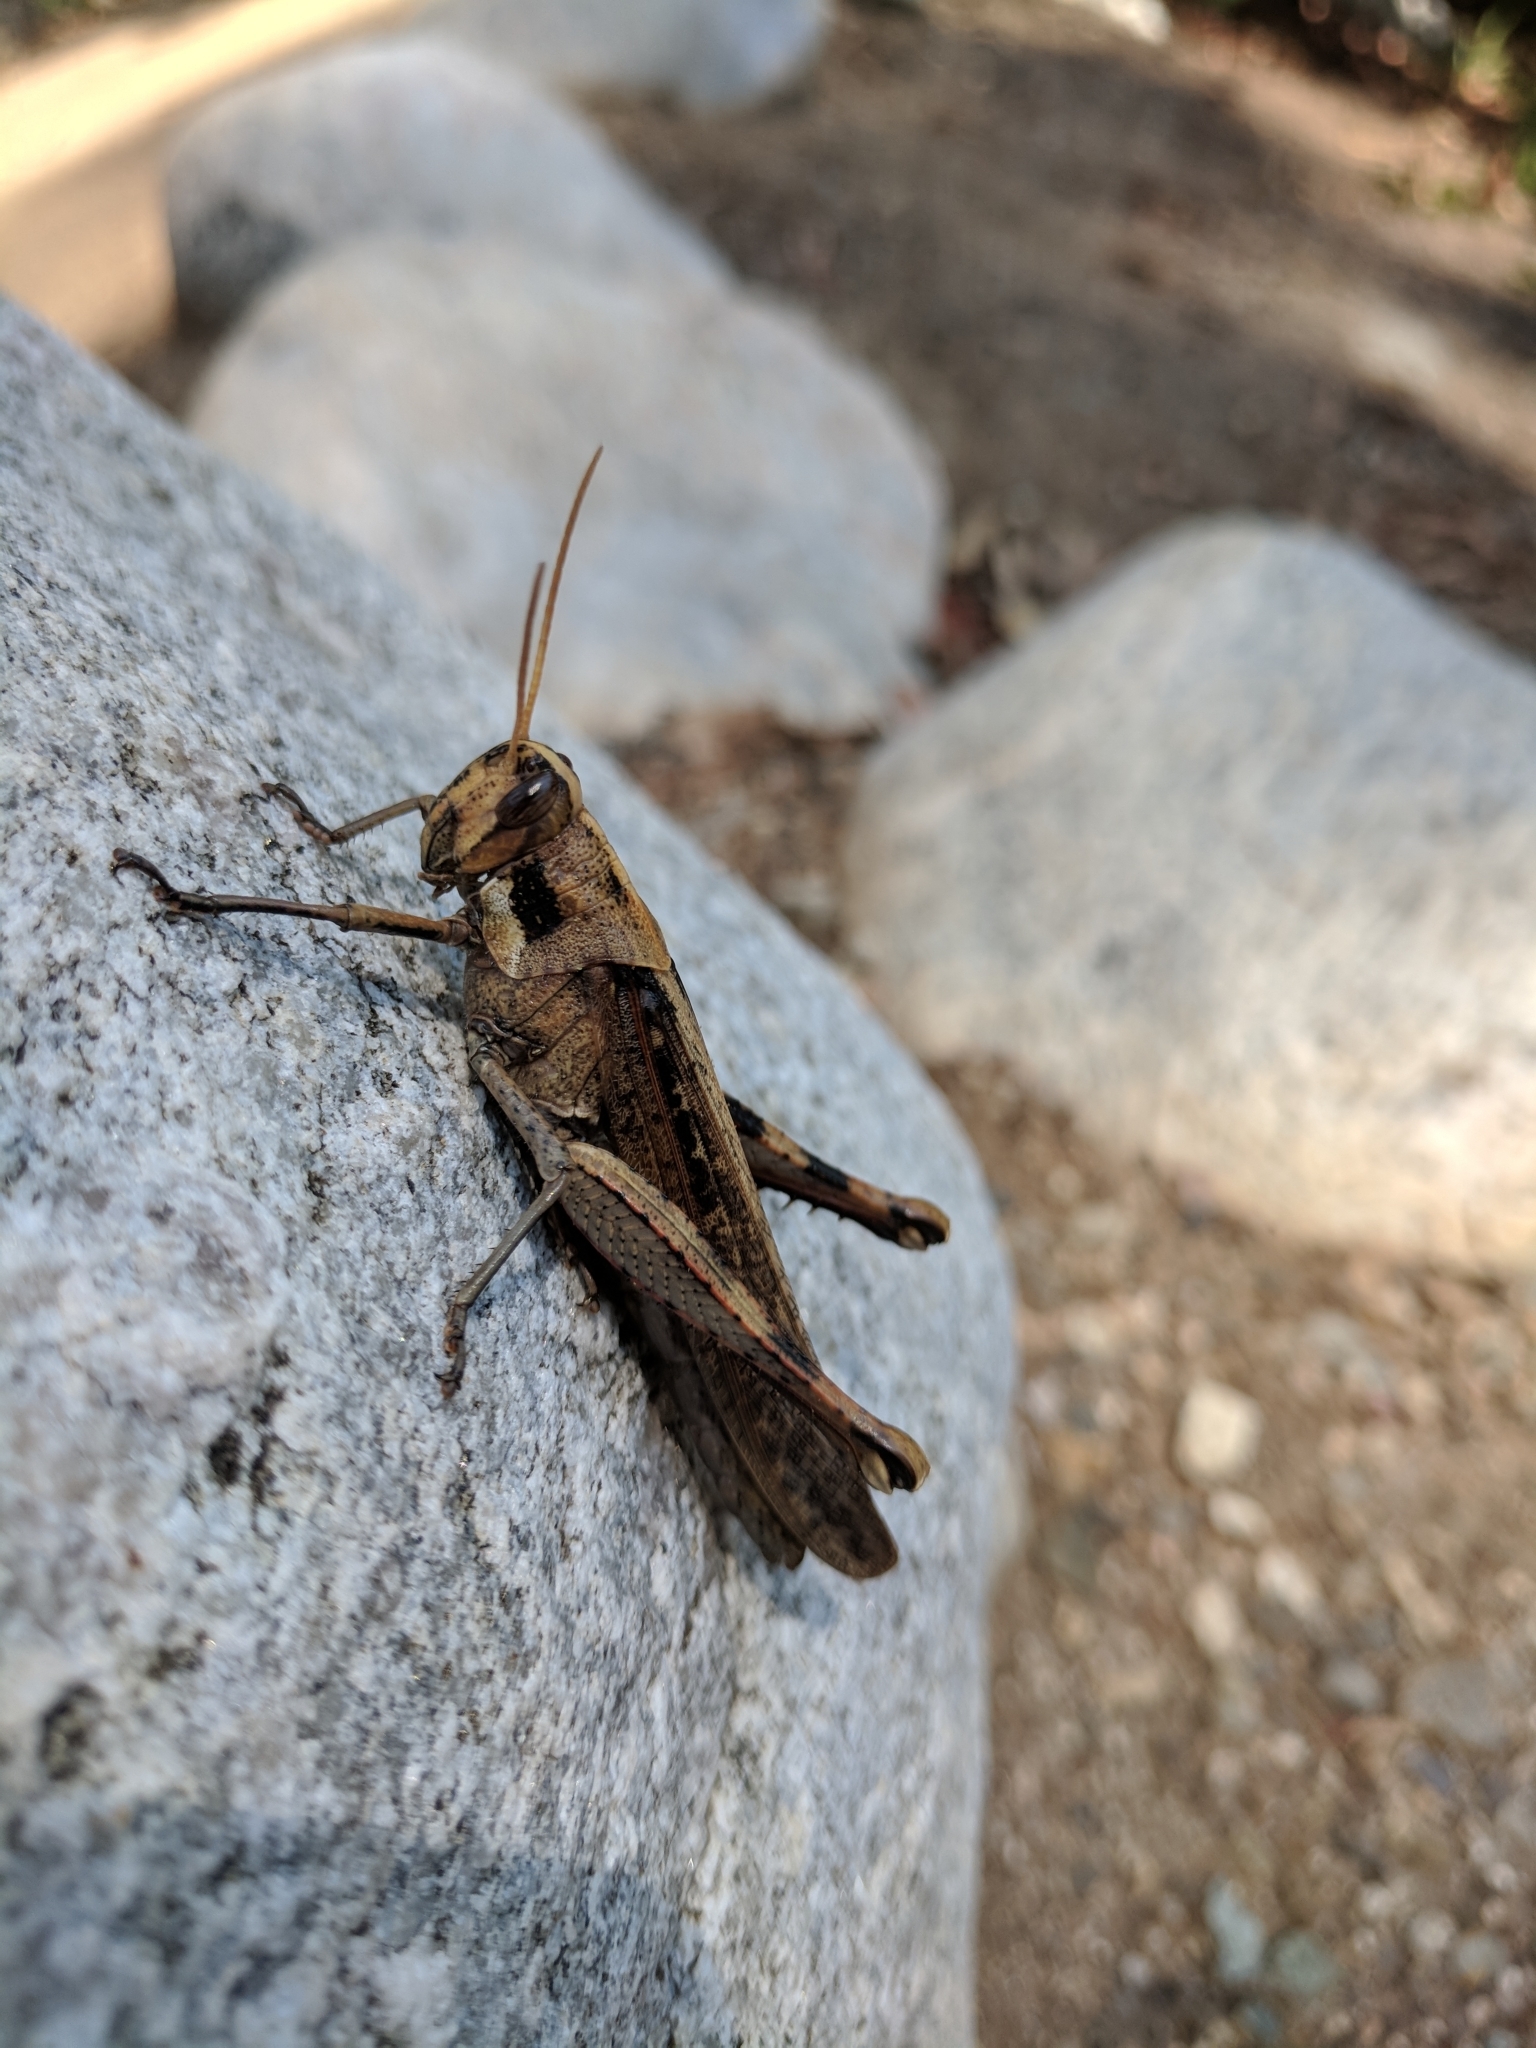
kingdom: Animalia
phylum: Arthropoda
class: Insecta
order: Orthoptera
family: Acrididae
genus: Schistocerca
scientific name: Schistocerca nitens
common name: Vagrant grasshopper
